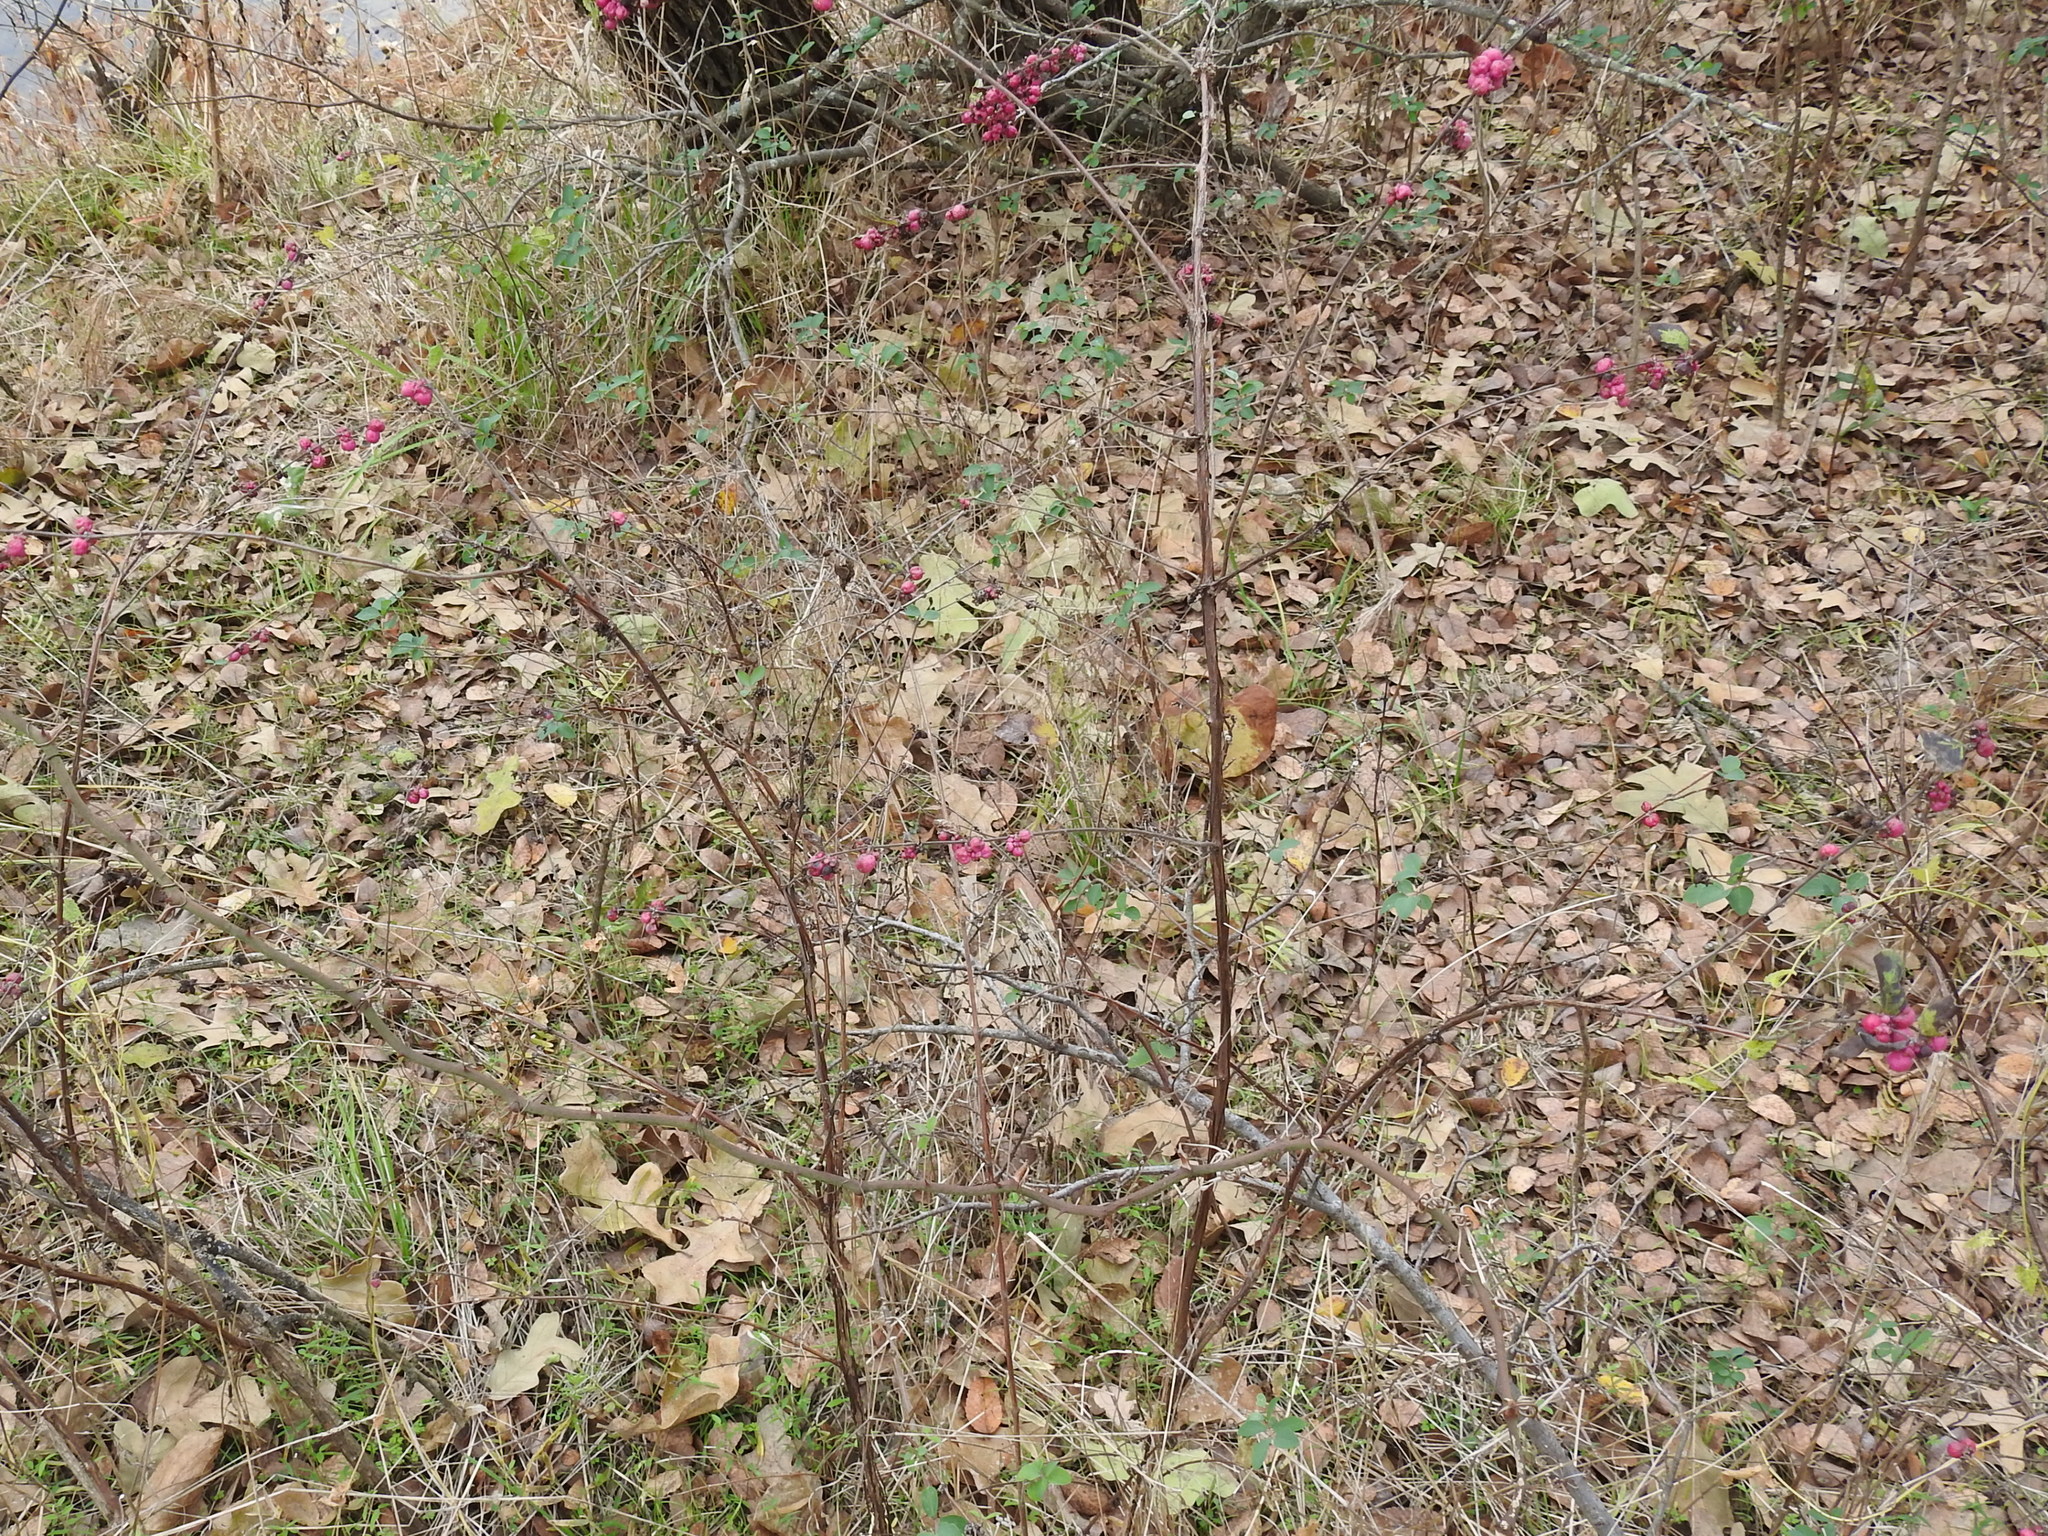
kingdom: Plantae
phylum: Tracheophyta
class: Magnoliopsida
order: Dipsacales
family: Caprifoliaceae
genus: Symphoricarpos
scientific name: Symphoricarpos orbiculatus
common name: Coralberry
